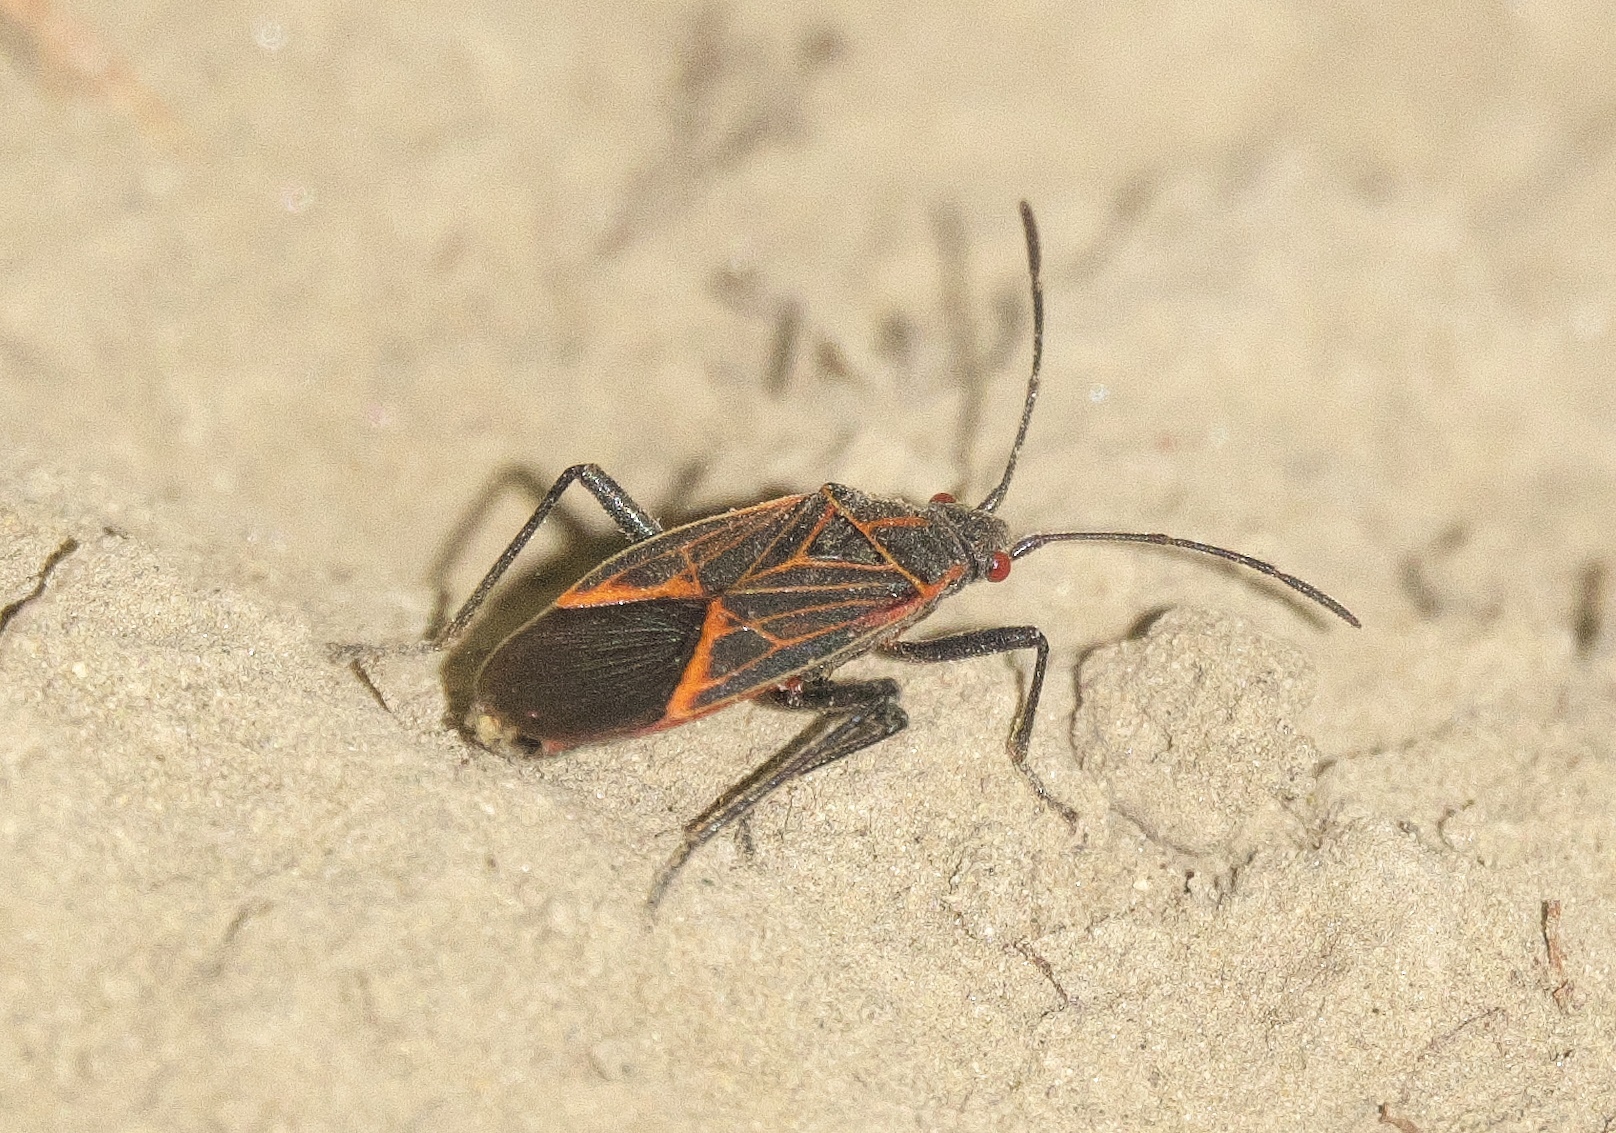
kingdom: Animalia
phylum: Arthropoda
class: Insecta
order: Hemiptera
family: Rhopalidae
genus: Boisea
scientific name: Boisea rubrolineata
